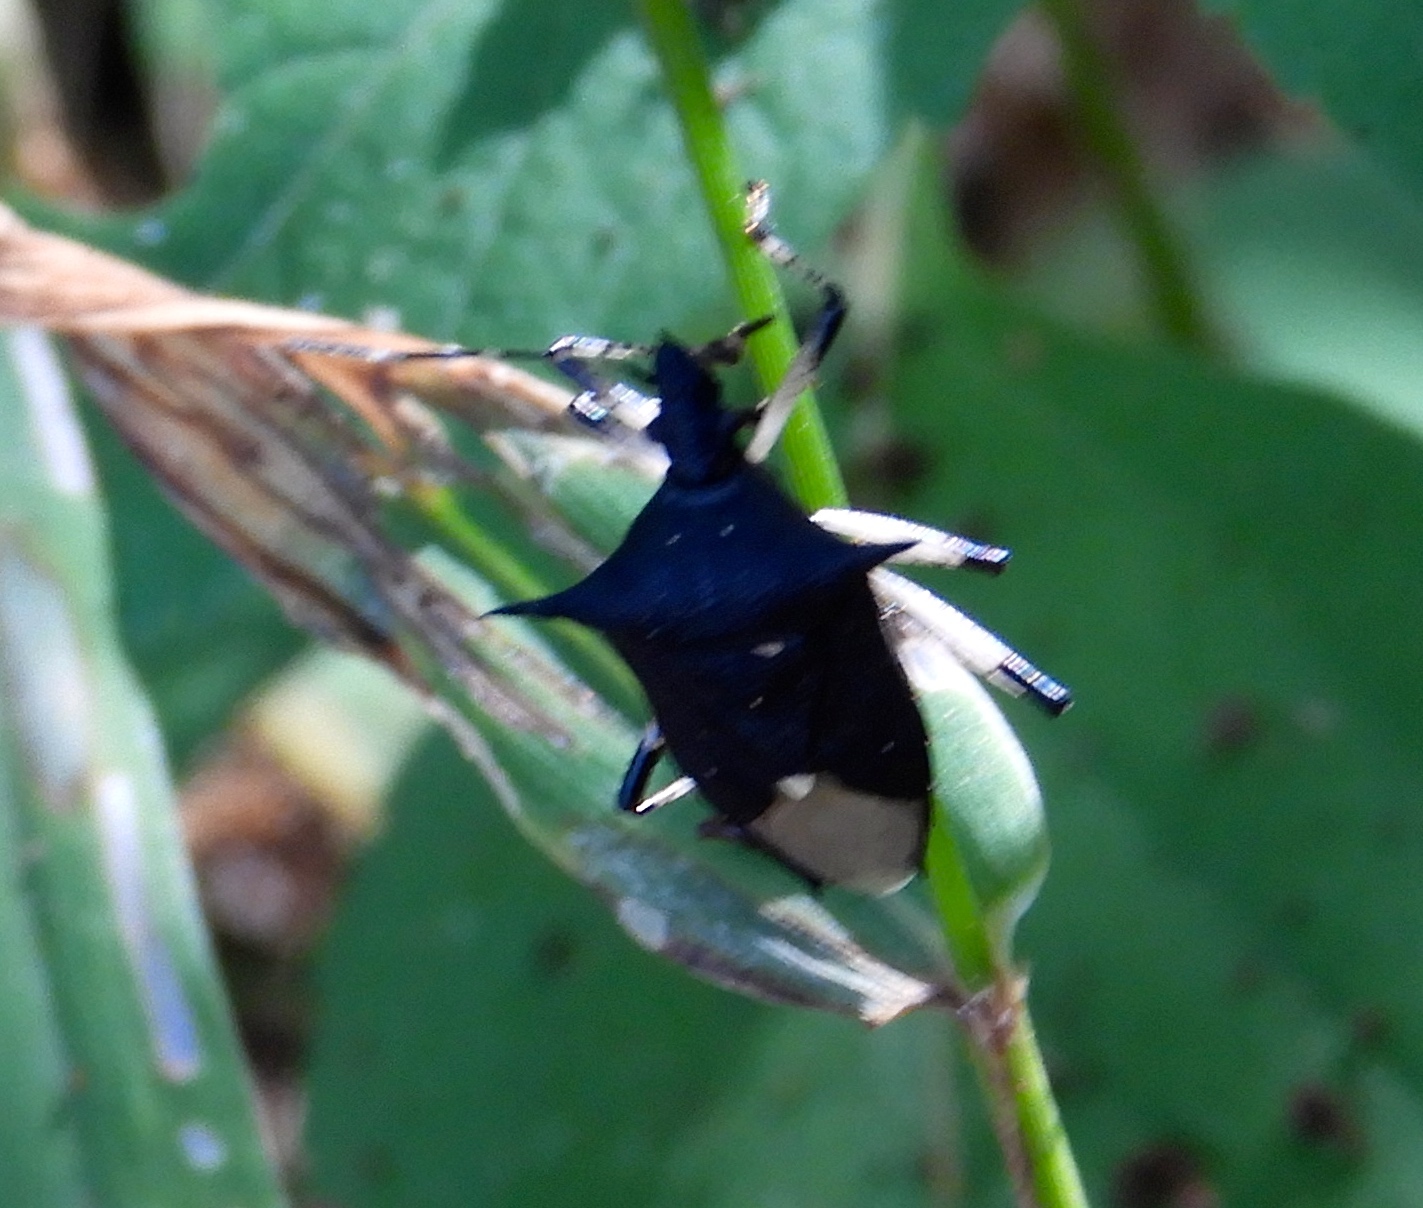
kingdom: Animalia
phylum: Arthropoda
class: Insecta
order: Hemiptera
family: Pentatomidae
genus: Proxys
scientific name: Proxys punctulatus
